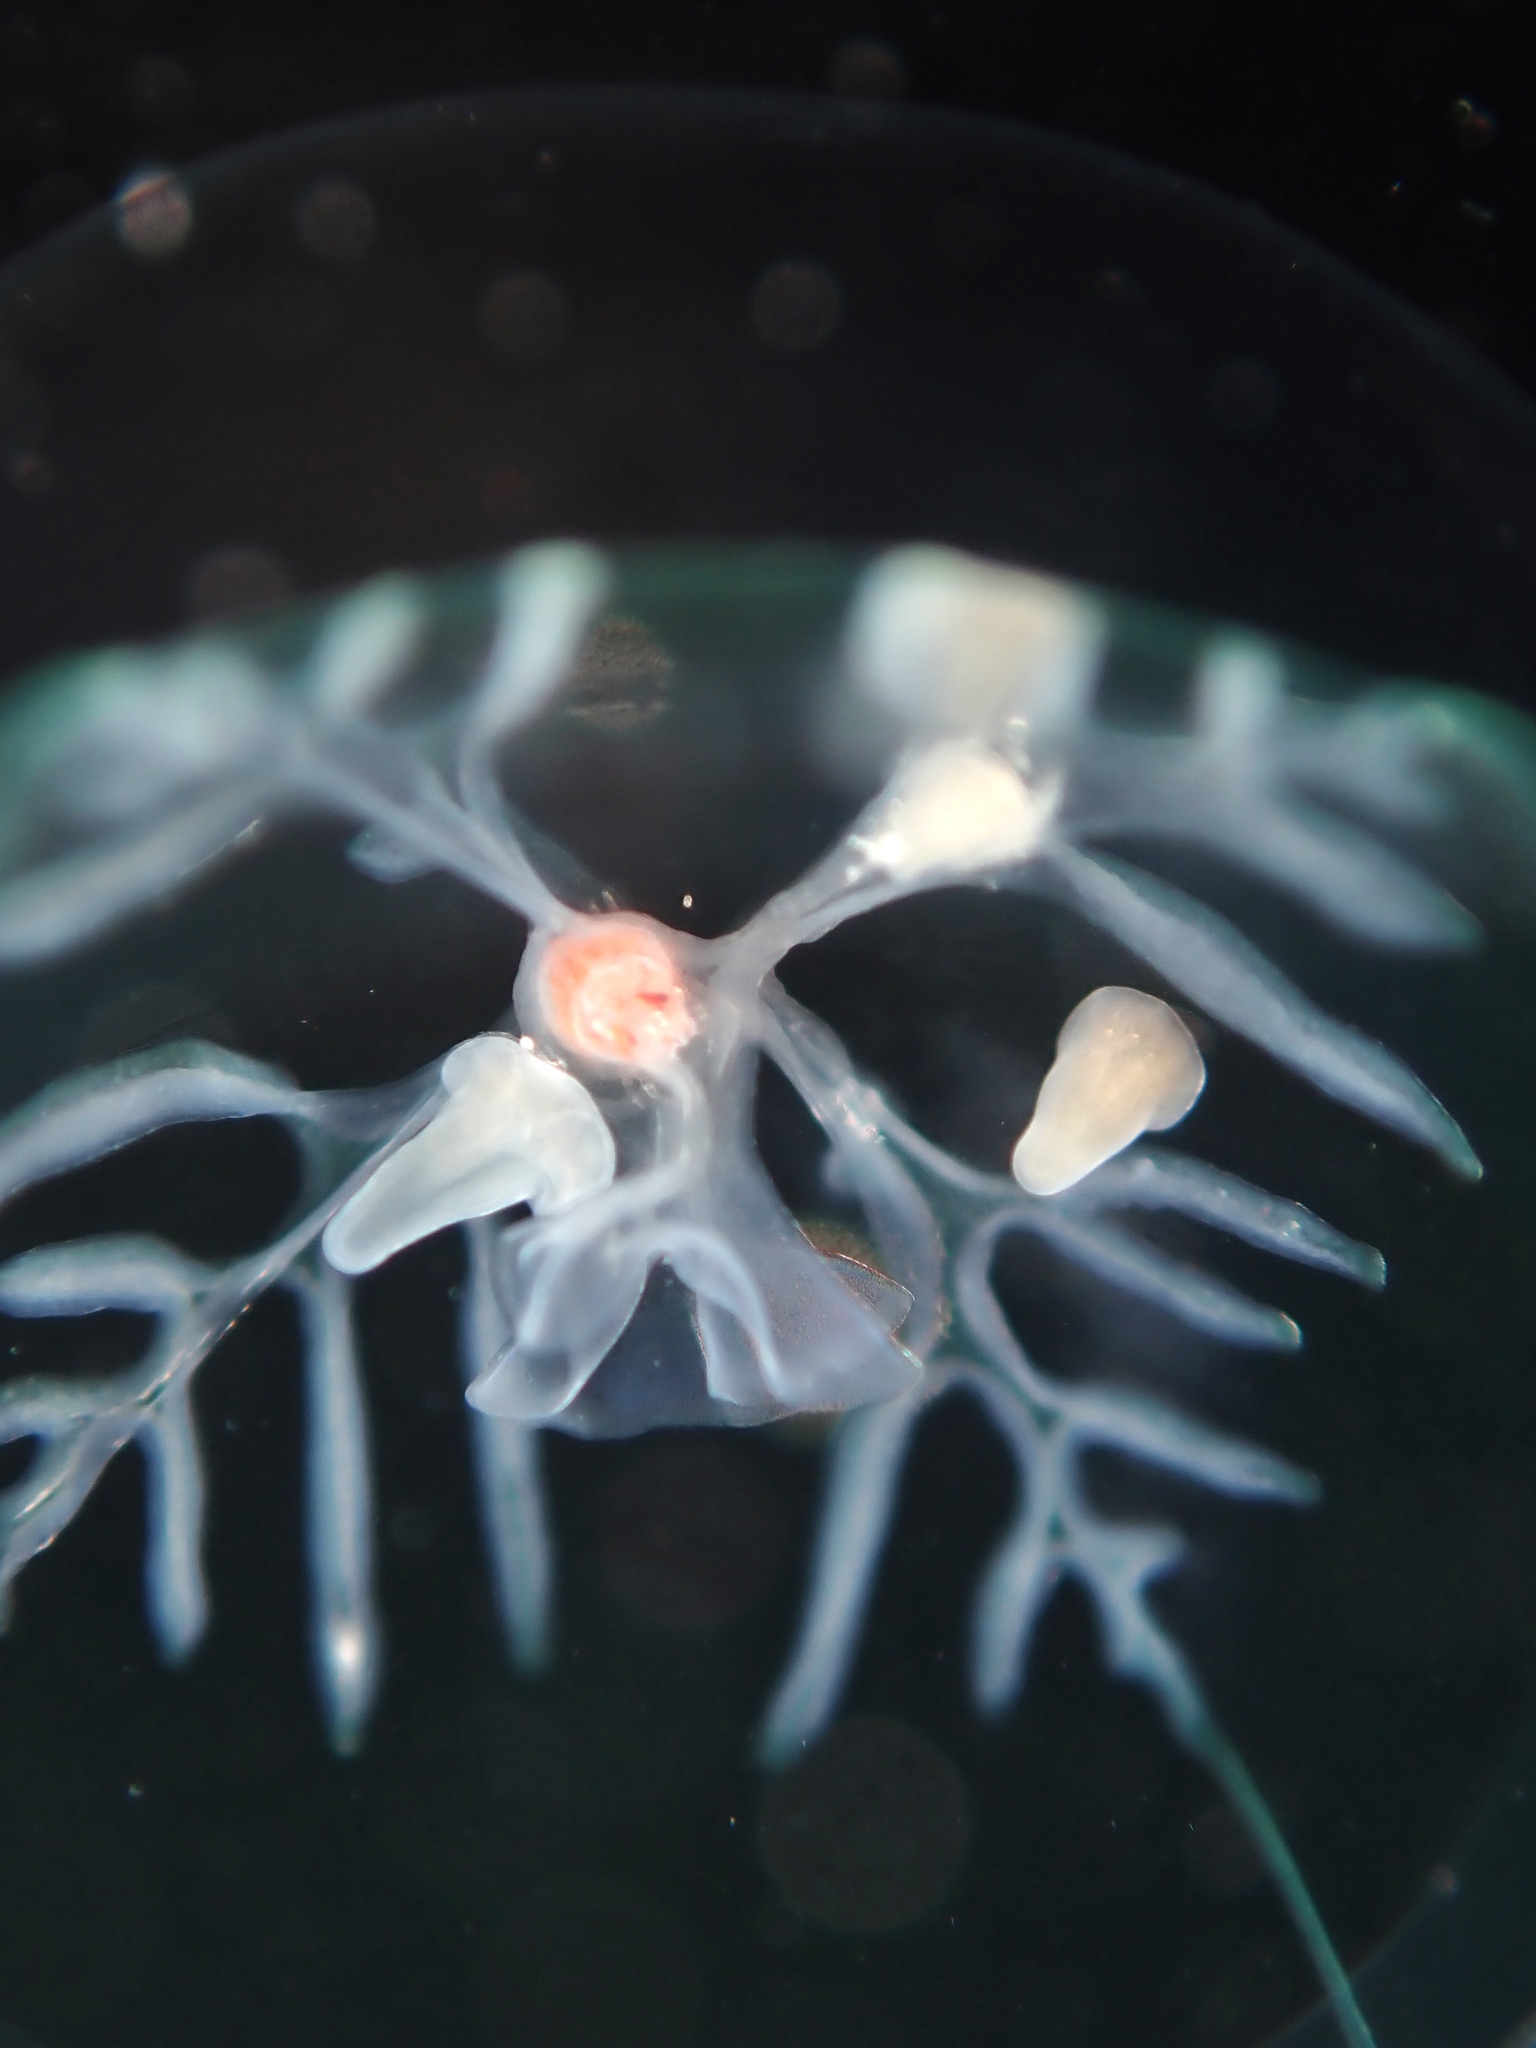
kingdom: Animalia
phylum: Cnidaria
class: Anthozoa
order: Actiniaria
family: Peachiidae
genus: Peachia
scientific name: Peachia neozealandica
